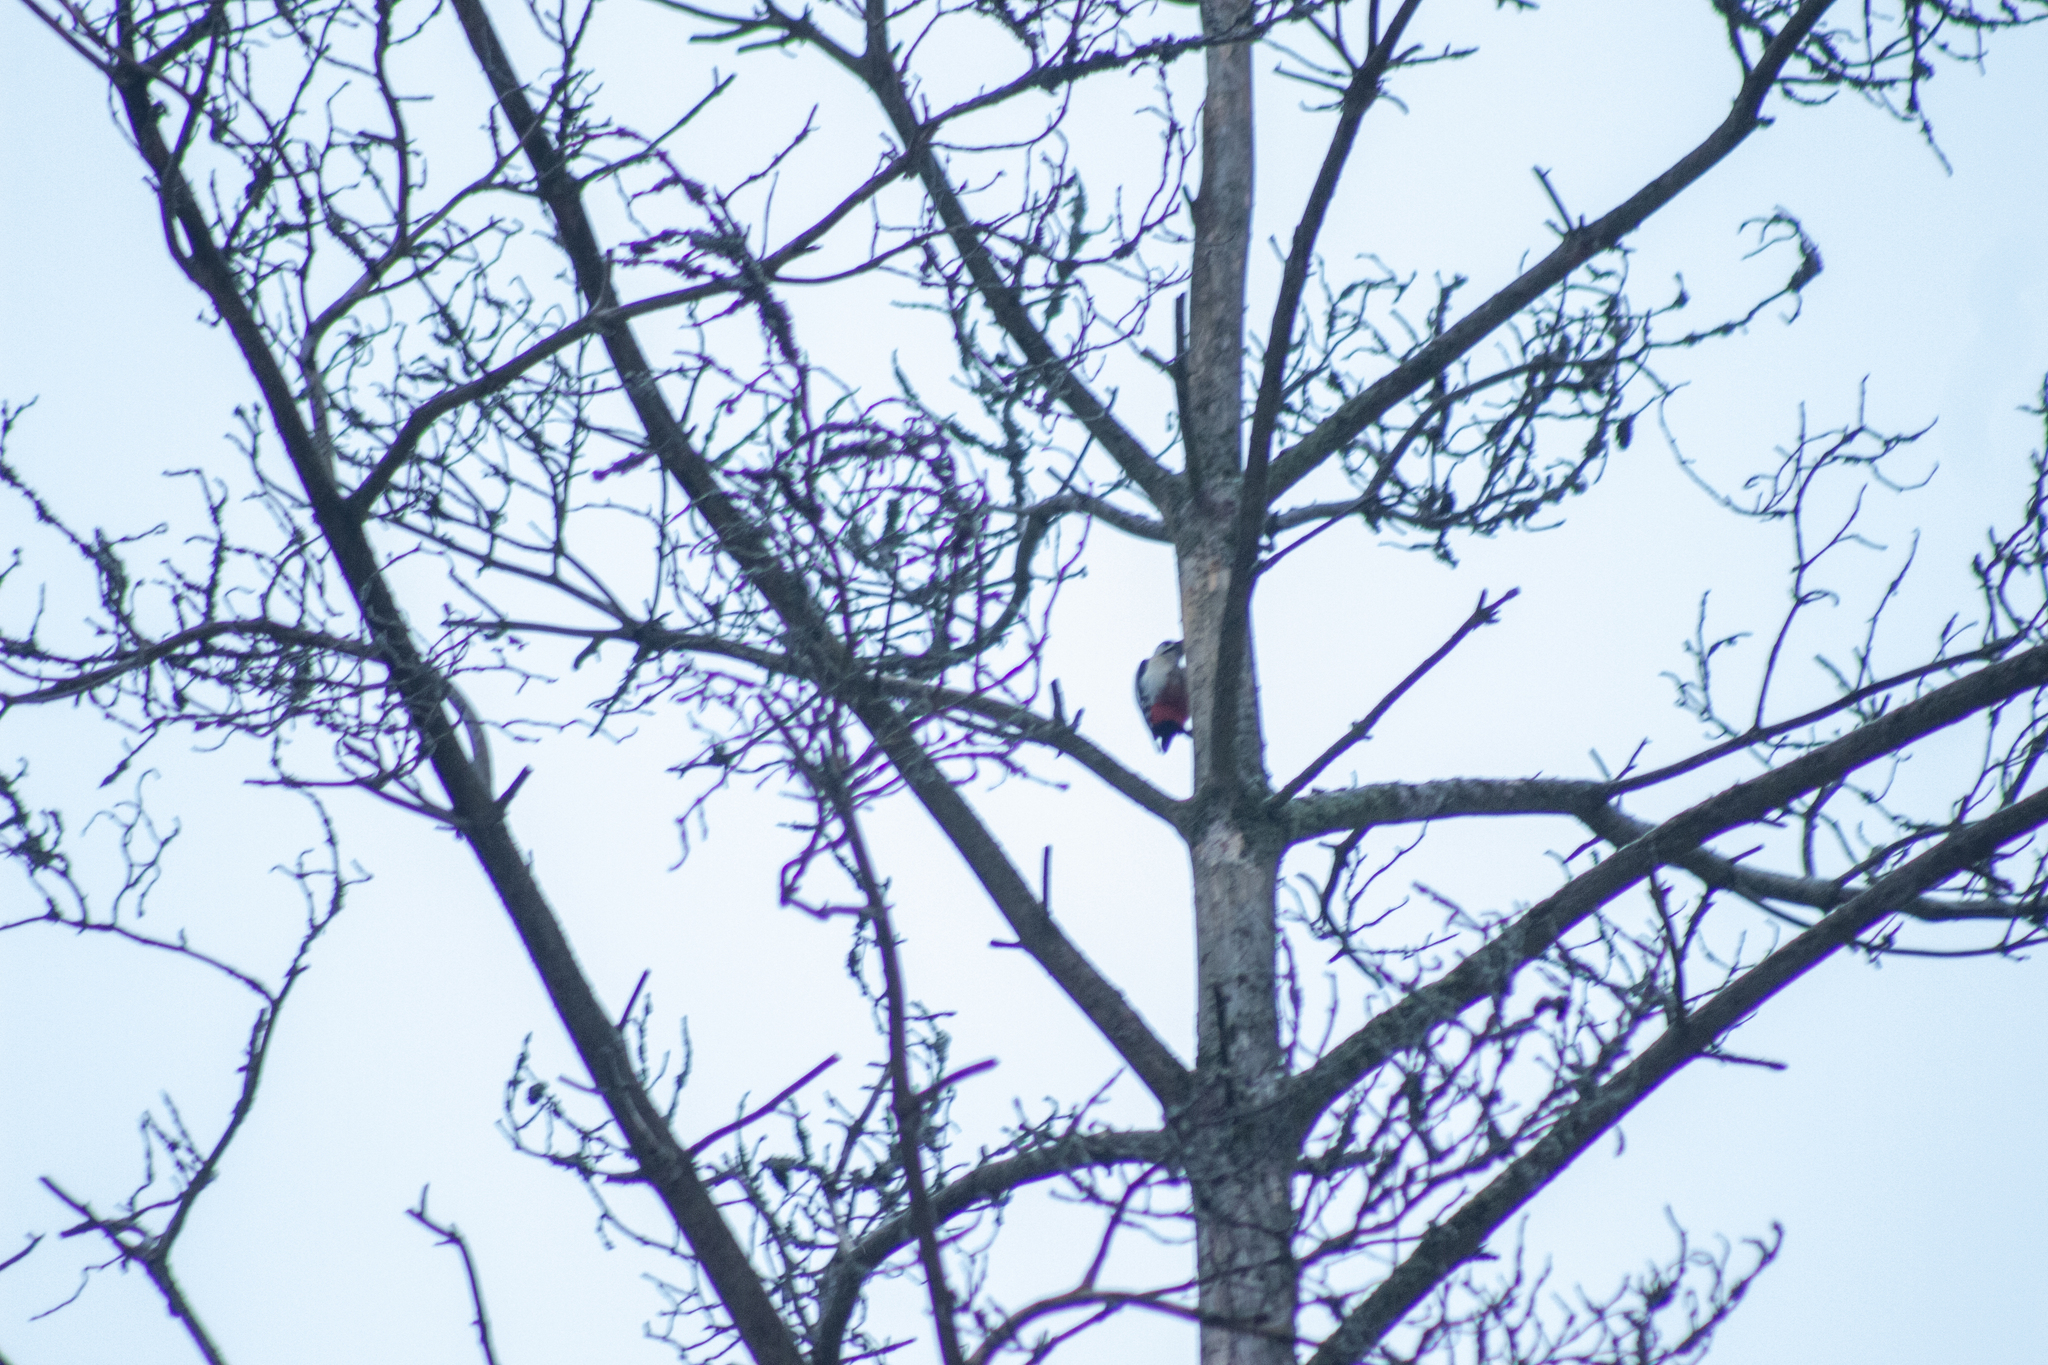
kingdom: Animalia
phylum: Chordata
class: Aves
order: Piciformes
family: Picidae
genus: Dendrocopos
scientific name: Dendrocopos major
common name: Great spotted woodpecker
